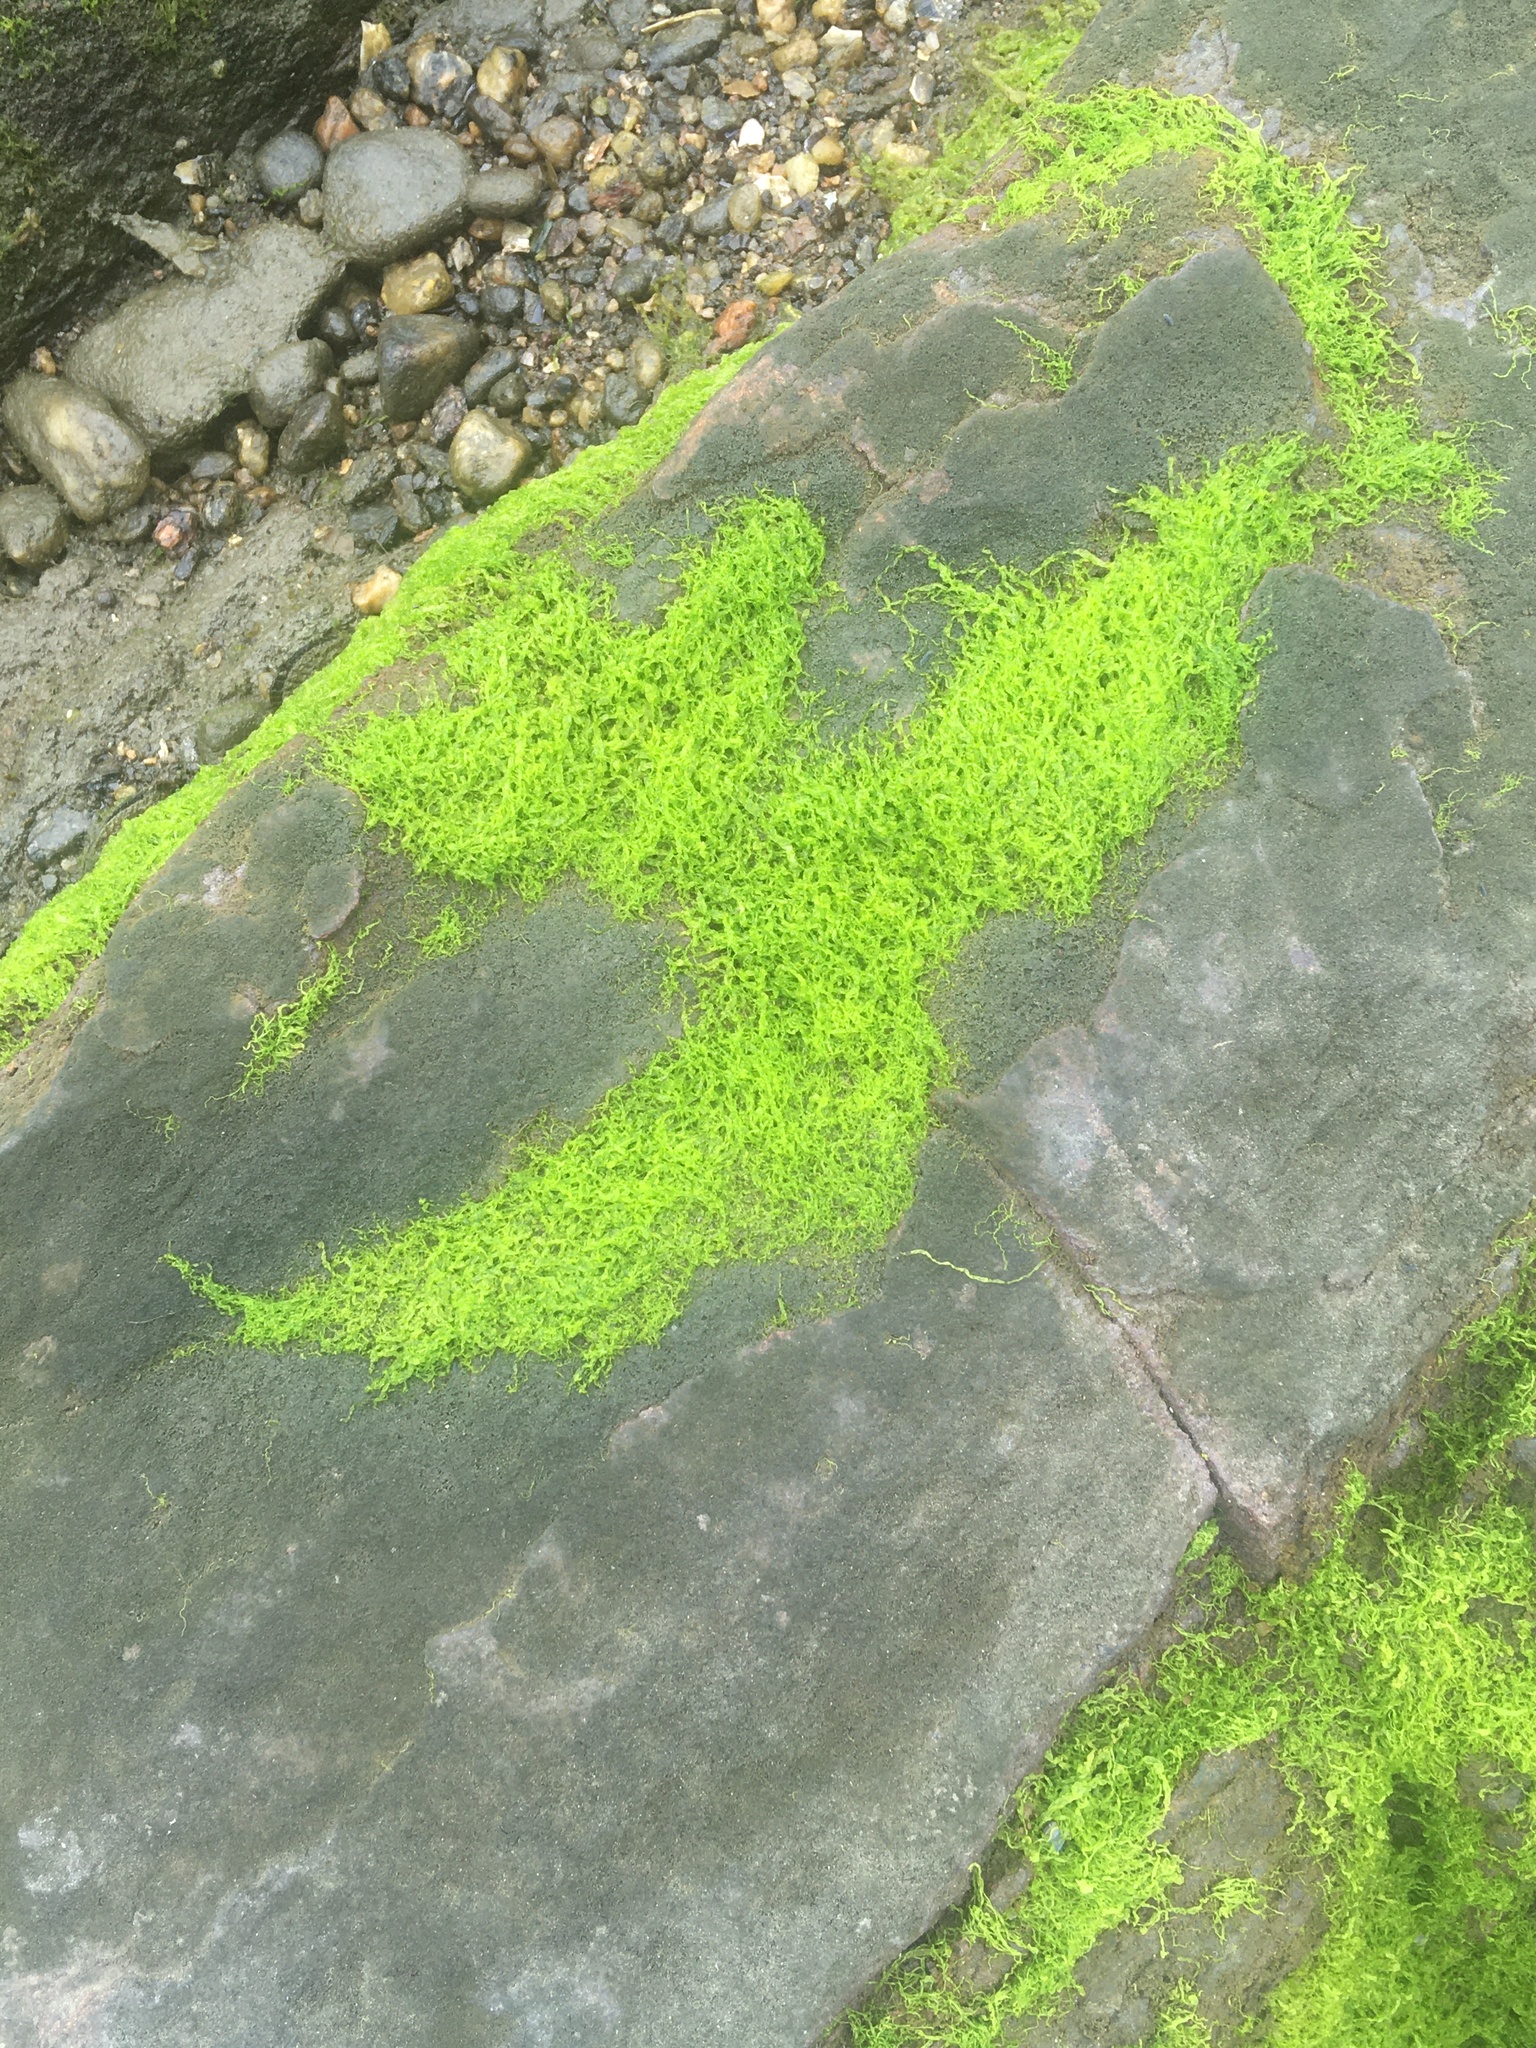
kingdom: Plantae
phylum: Chlorophyta
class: Ulvophyceae
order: Ulvales
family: Ulvaceae
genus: Ulva
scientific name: Ulva intestinalis
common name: Gut weed
